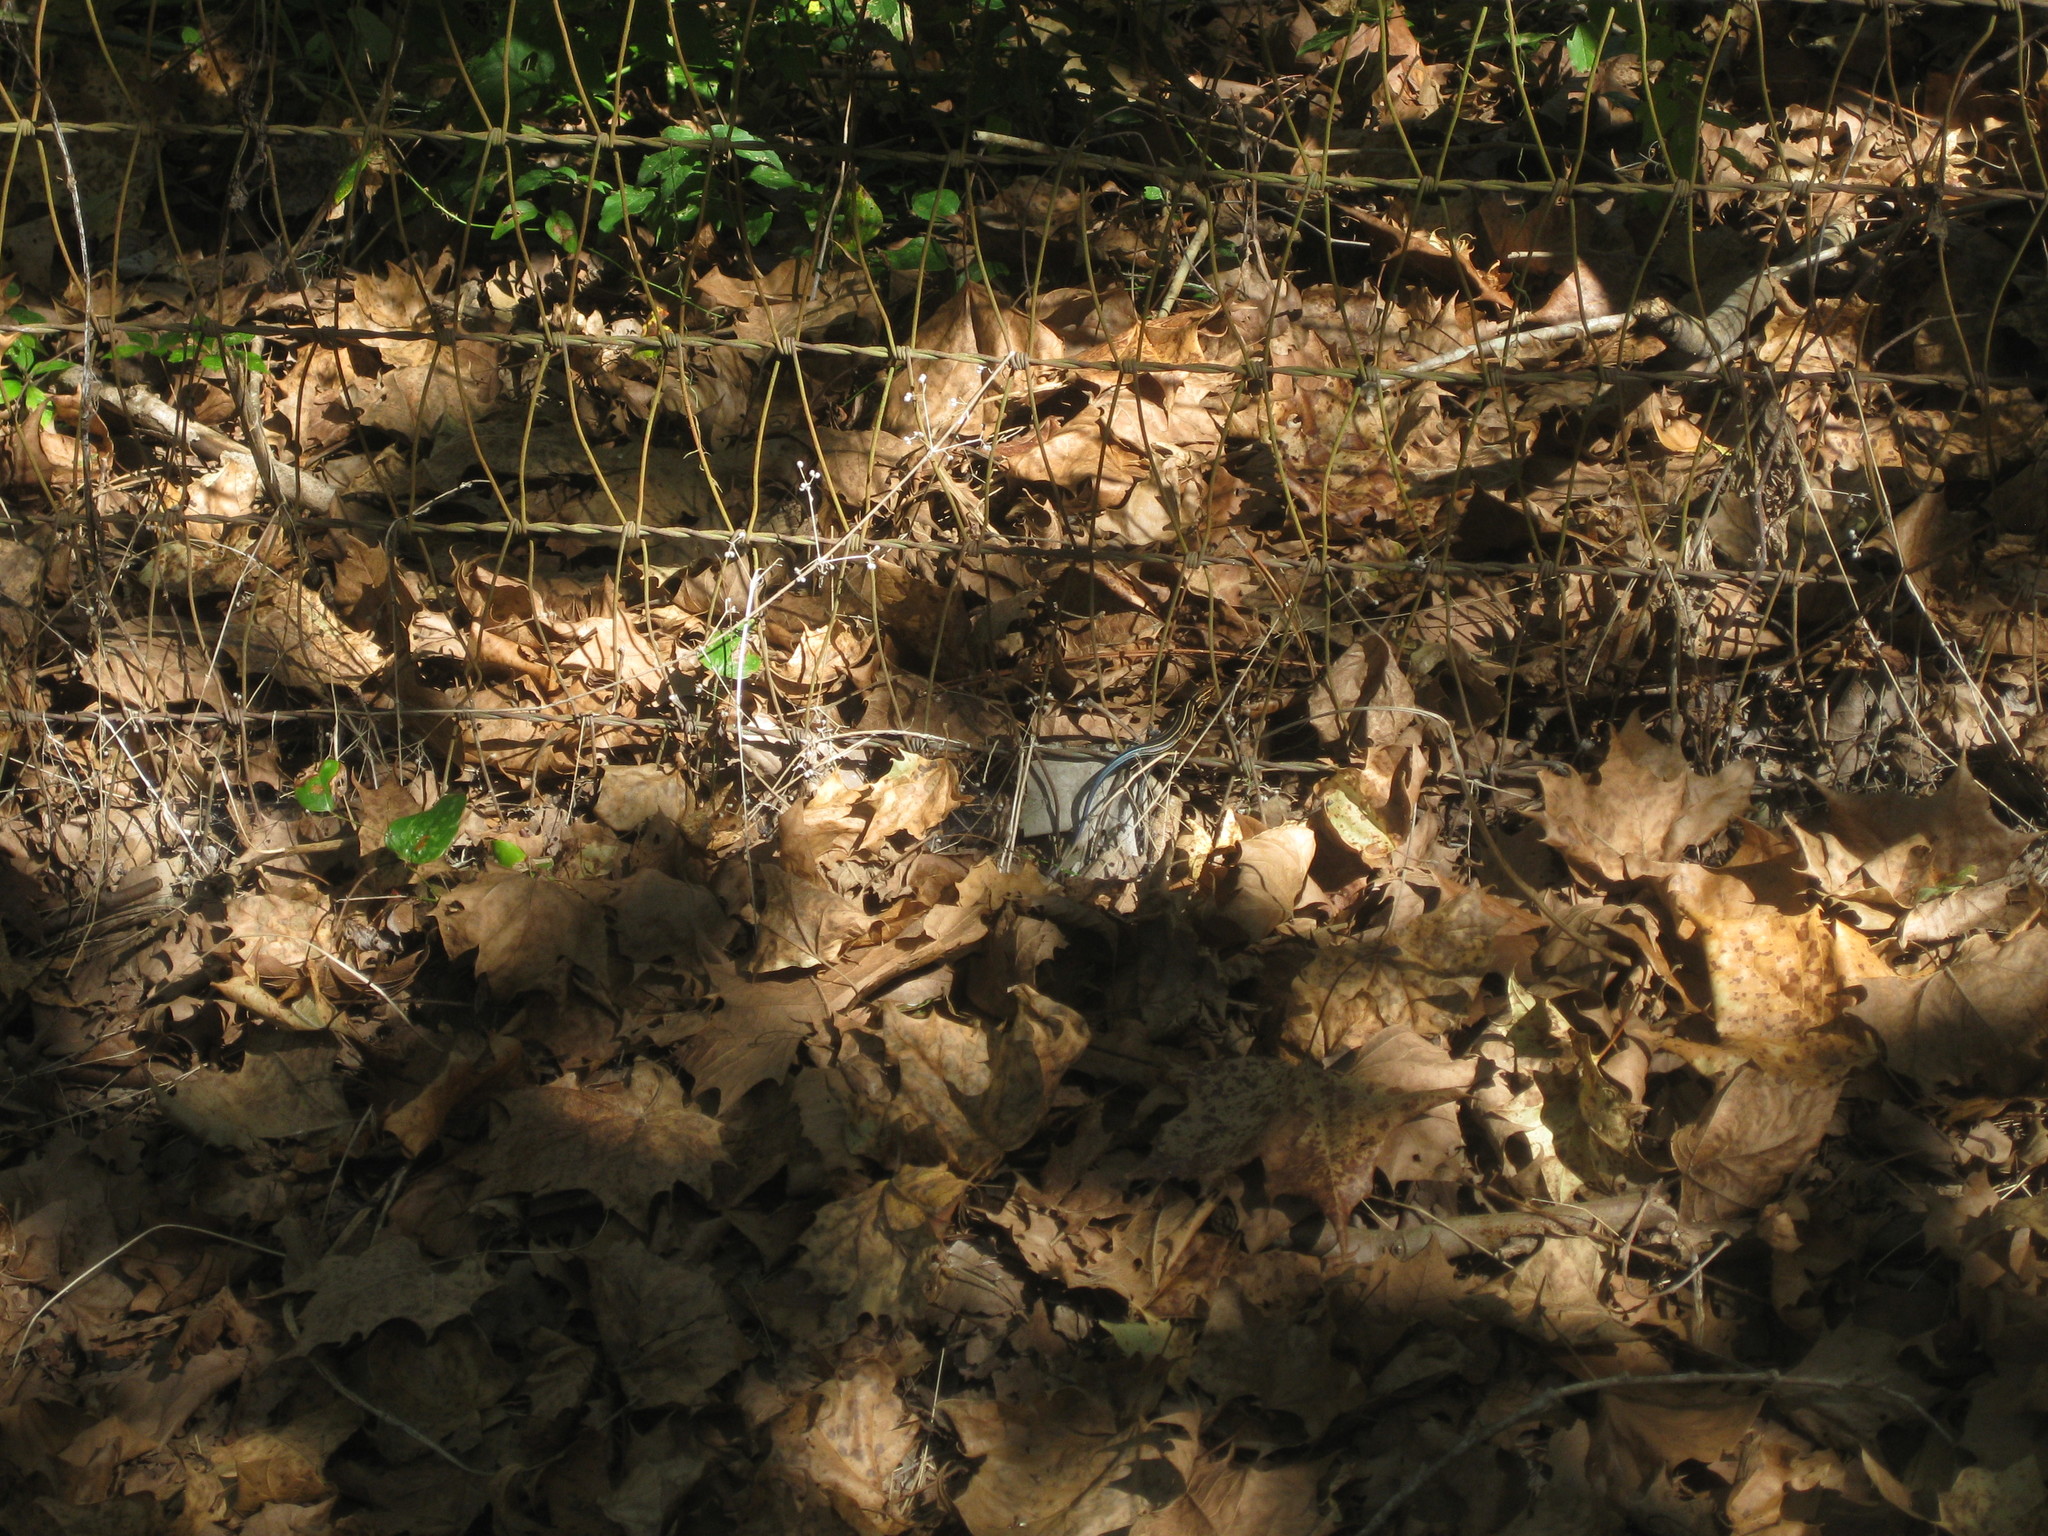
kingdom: Animalia
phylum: Chordata
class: Squamata
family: Scincidae
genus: Plestiodon
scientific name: Plestiodon
